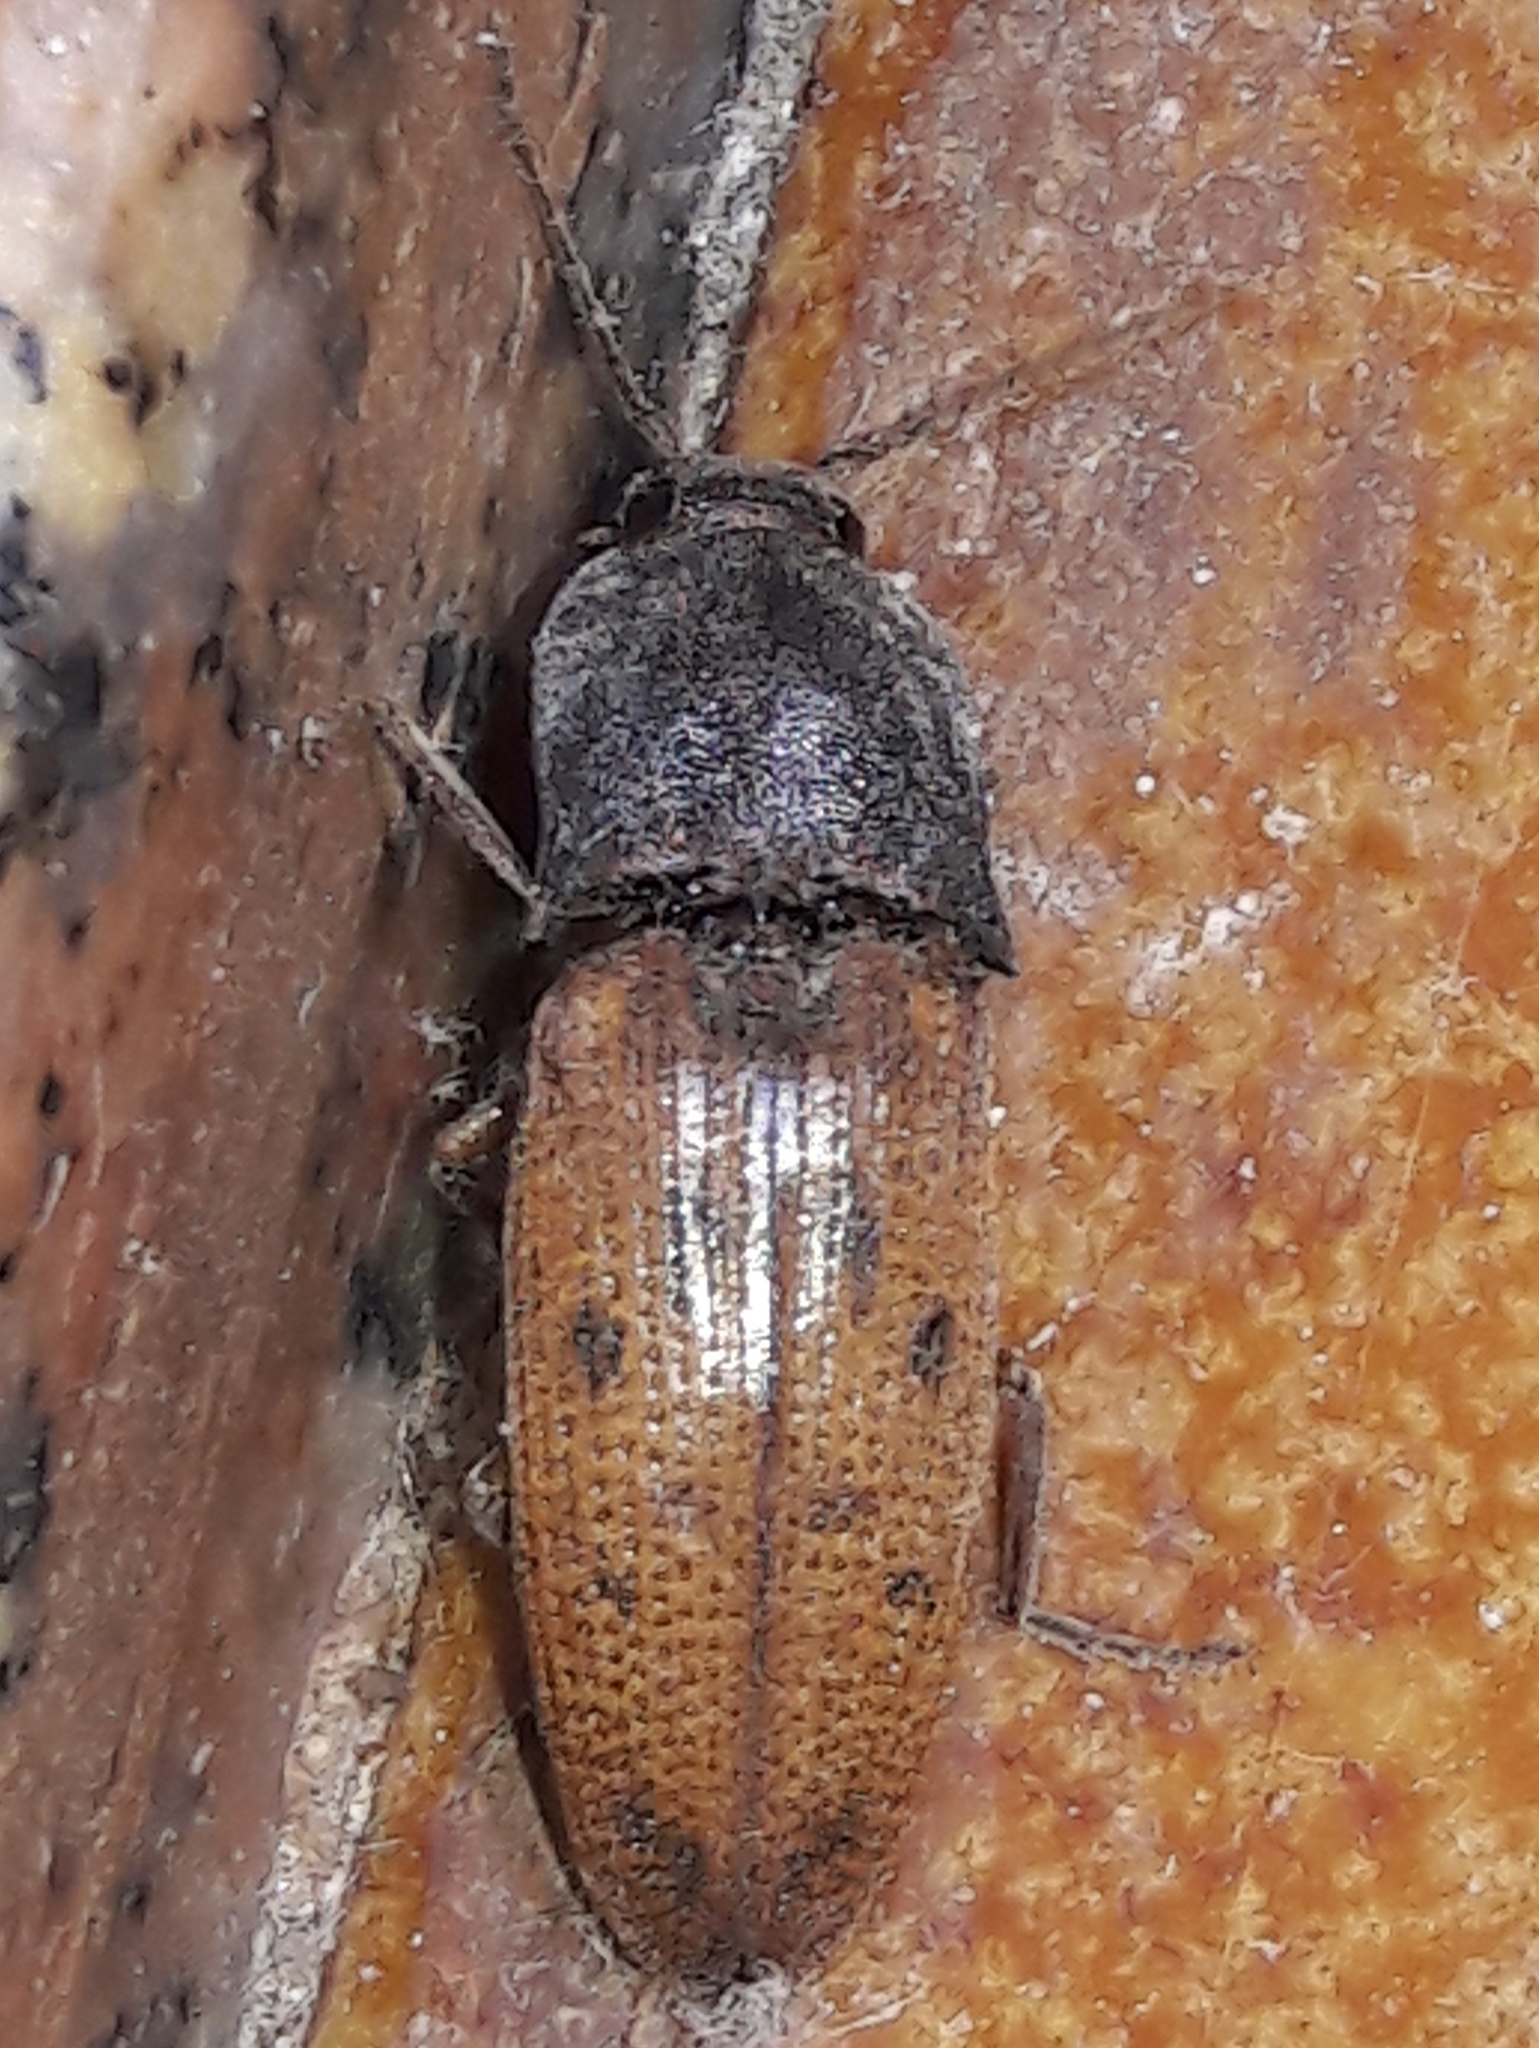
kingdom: Animalia
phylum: Arthropoda
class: Insecta
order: Coleoptera
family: Elateridae
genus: Monocrepidius
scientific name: Monocrepidius
